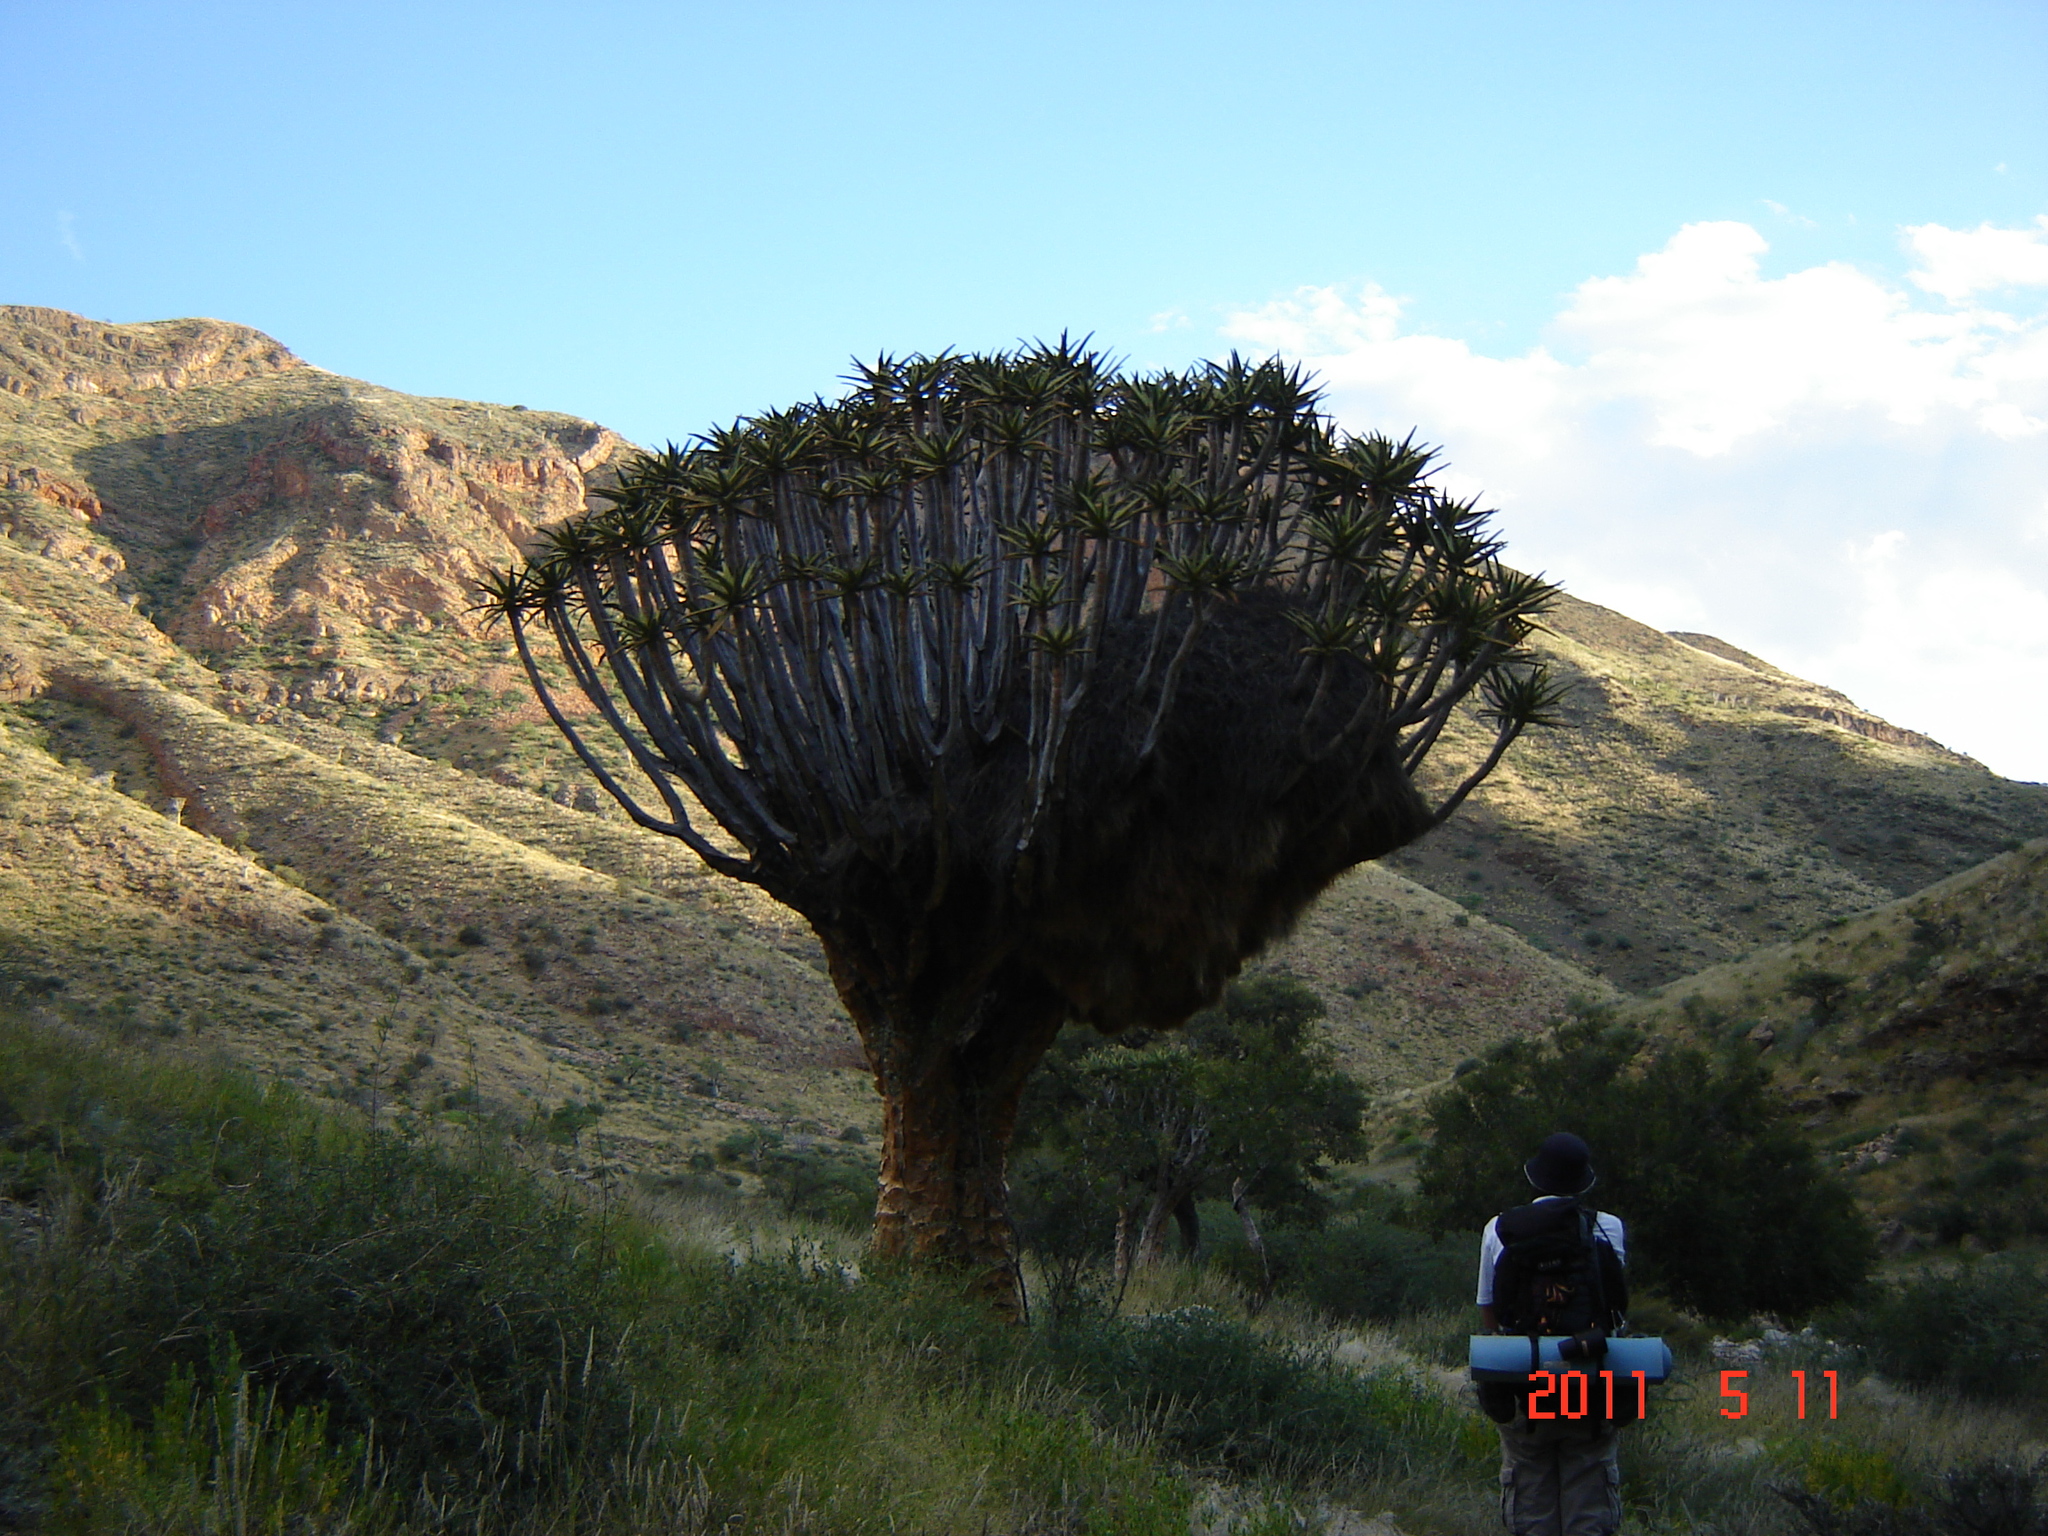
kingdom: Animalia
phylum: Chordata
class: Aves
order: Passeriformes
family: Passeridae
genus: Philetairus
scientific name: Philetairus socius
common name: Sociable weaver
